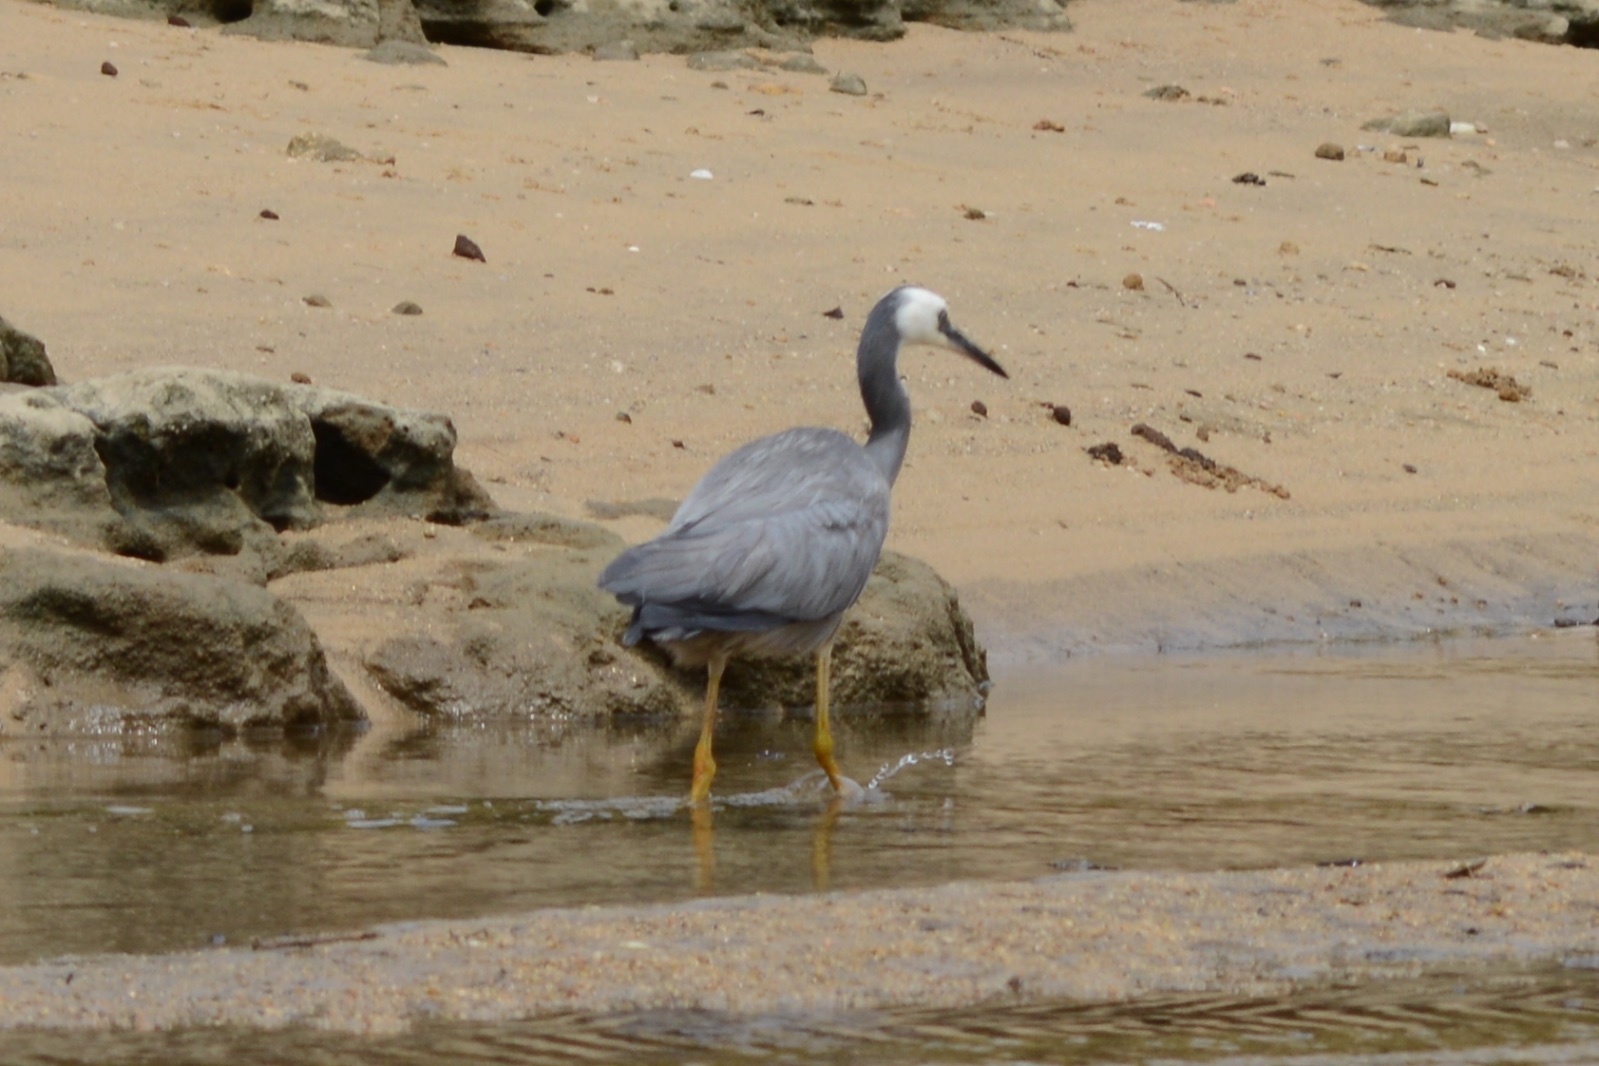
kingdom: Animalia
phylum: Chordata
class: Aves
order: Pelecaniformes
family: Ardeidae
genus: Egretta
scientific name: Egretta novaehollandiae
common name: White-faced heron
